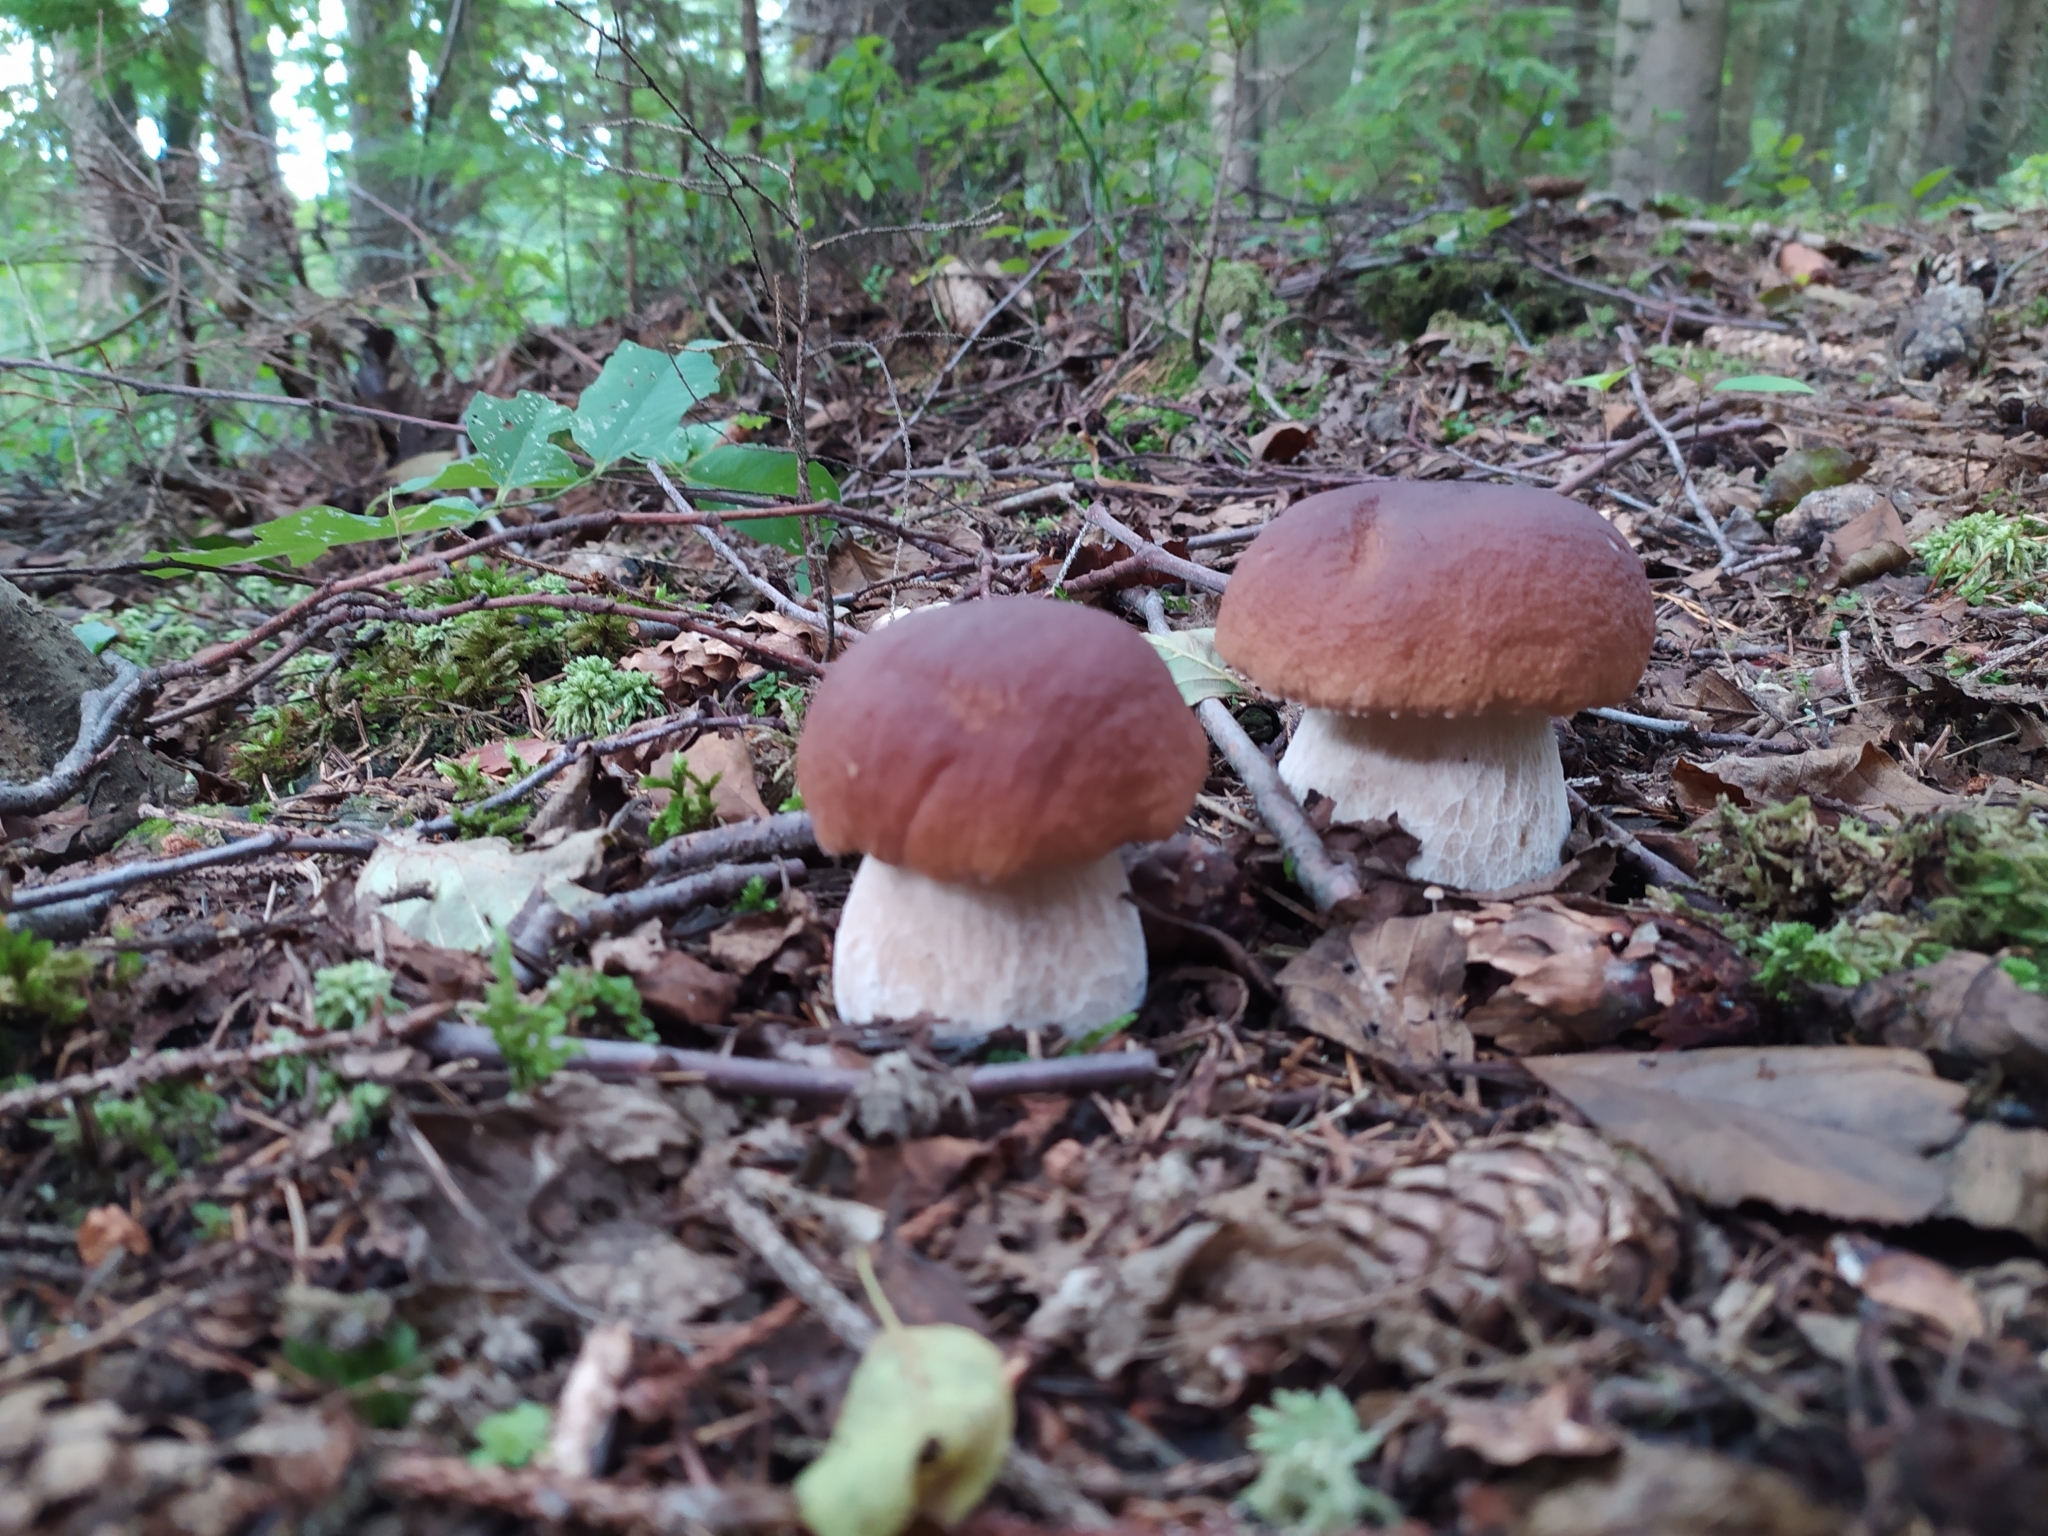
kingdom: Fungi
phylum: Basidiomycota
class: Agaricomycetes
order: Boletales
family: Boletaceae
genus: Boletus
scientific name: Boletus edulis
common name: Cep
